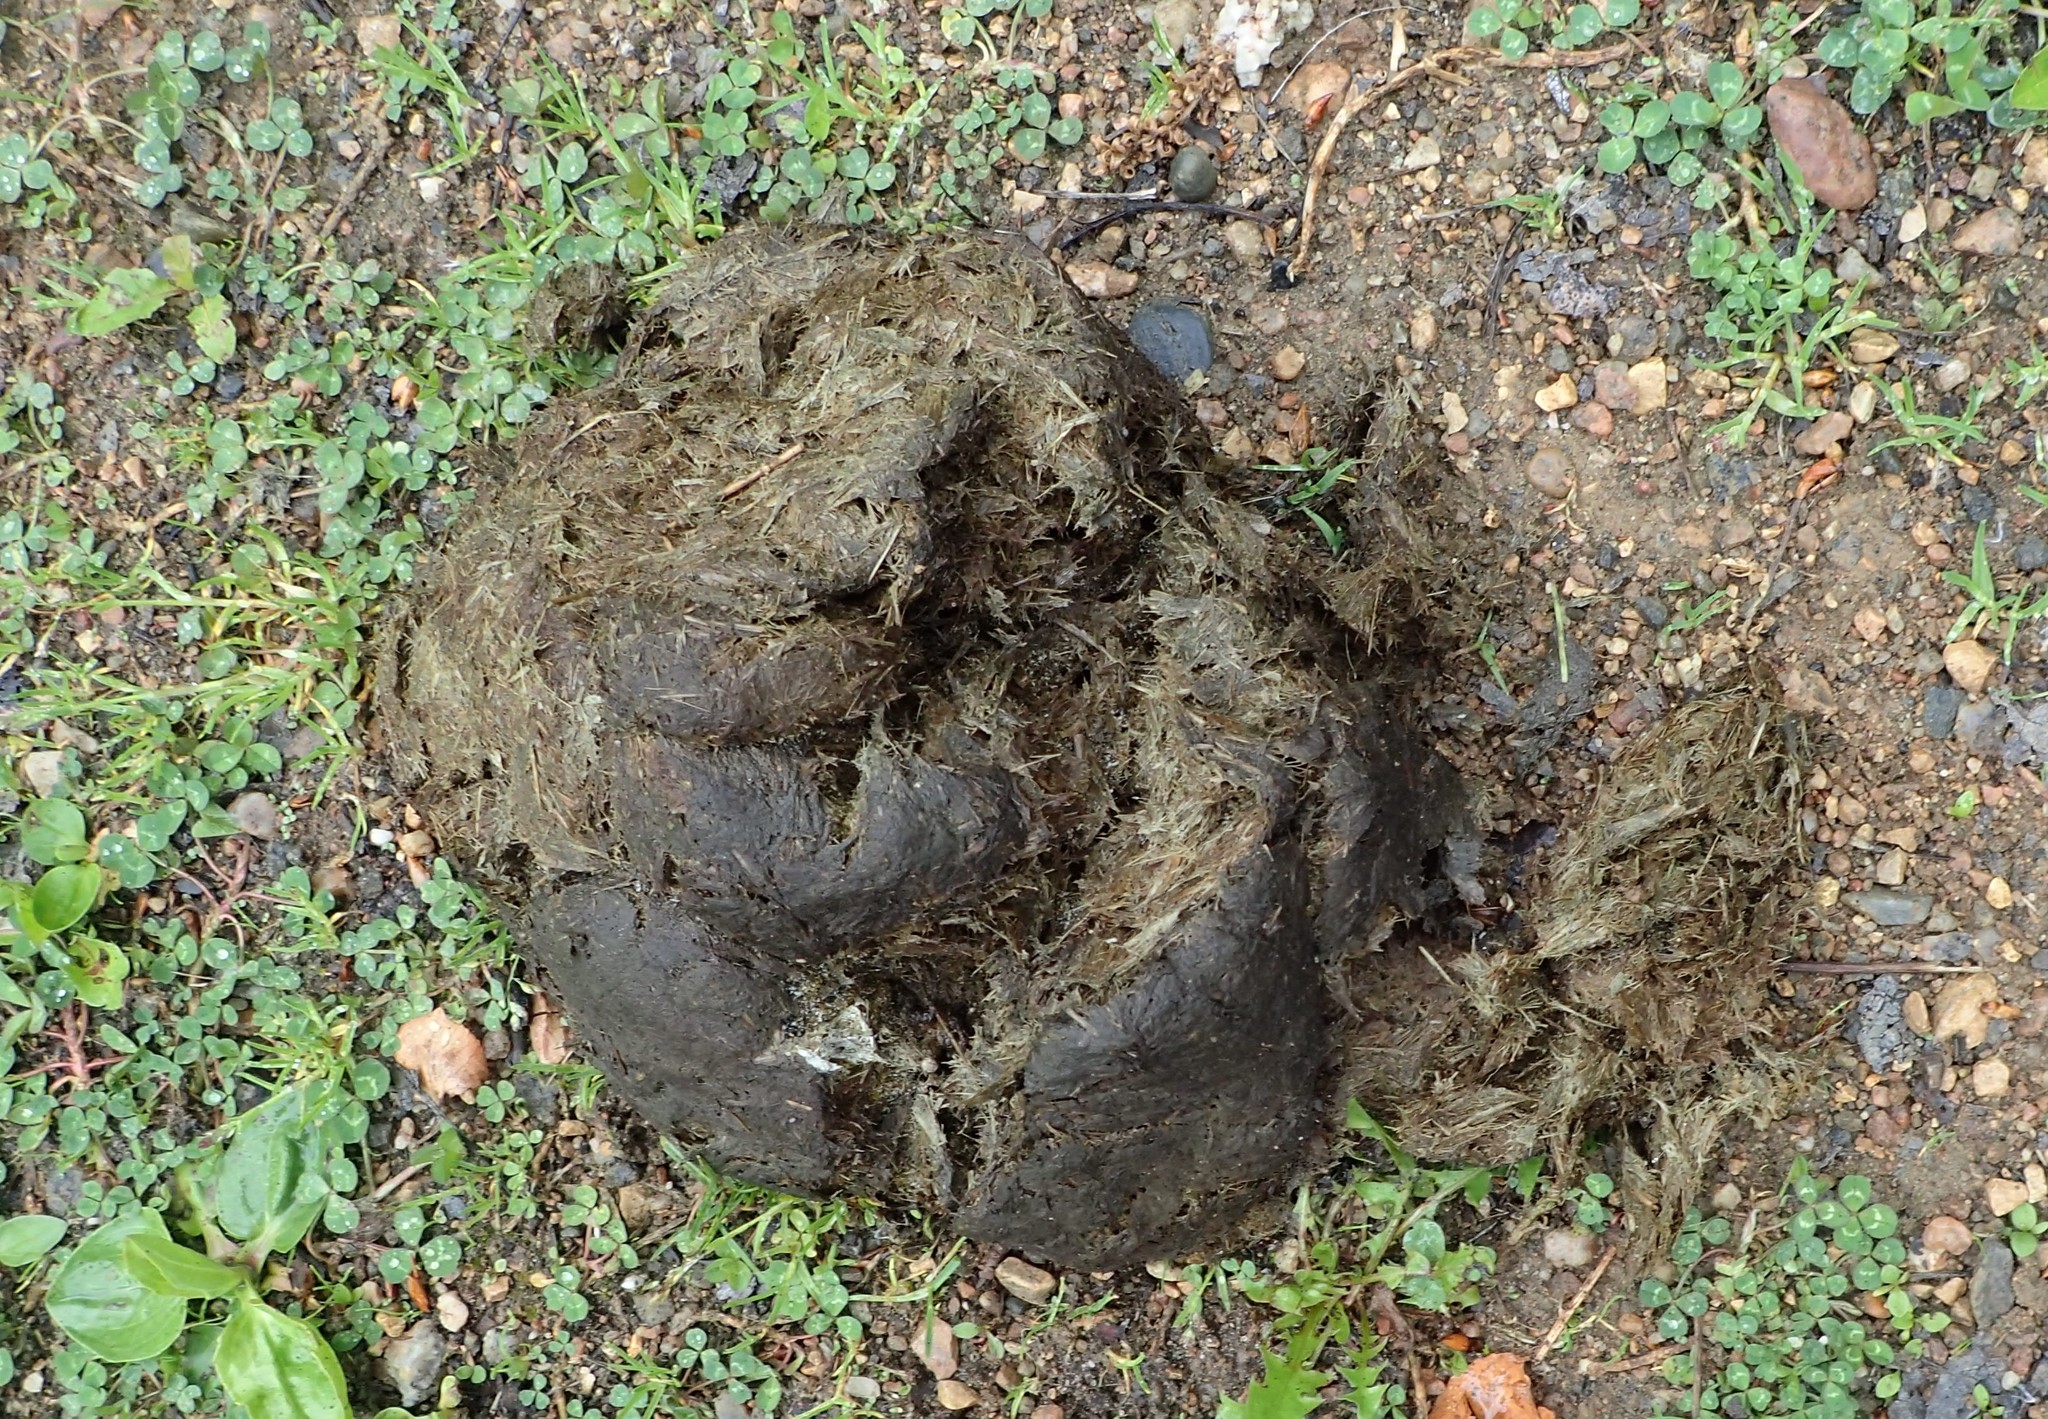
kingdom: Animalia
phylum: Chordata
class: Mammalia
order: Artiodactyla
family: Bovidae
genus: Bison
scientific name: Bison bison
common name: American bison
